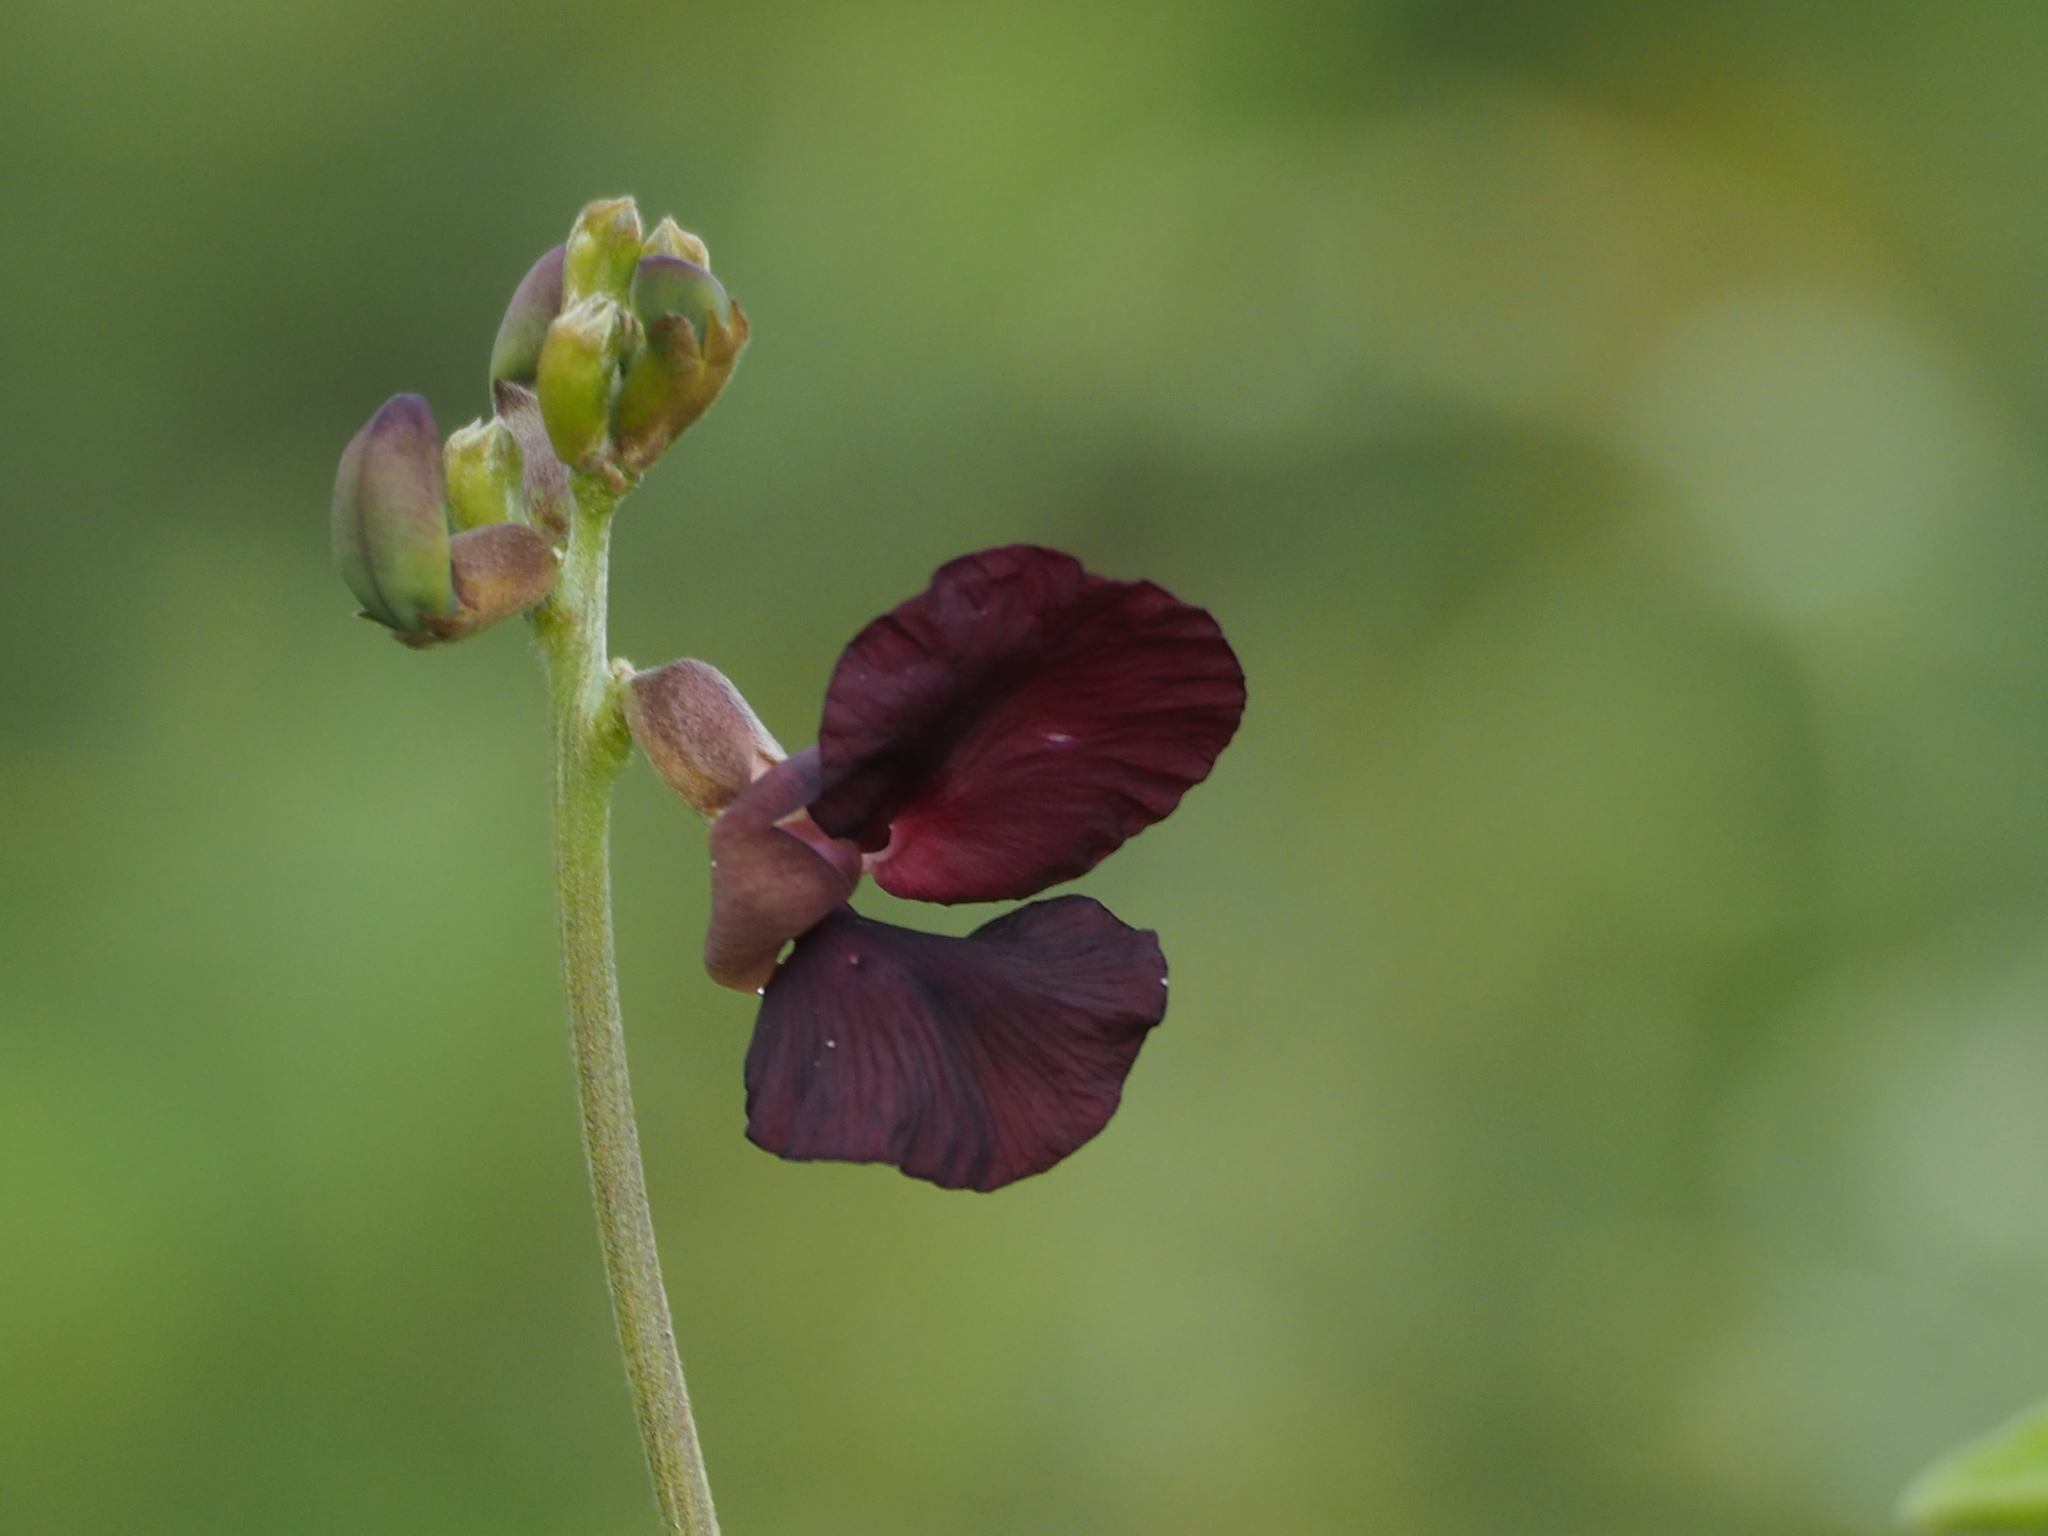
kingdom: Plantae
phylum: Tracheophyta
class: Magnoliopsida
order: Fabales
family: Fabaceae
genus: Macroptilium
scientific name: Macroptilium atropurpureum
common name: Purple bushbean
